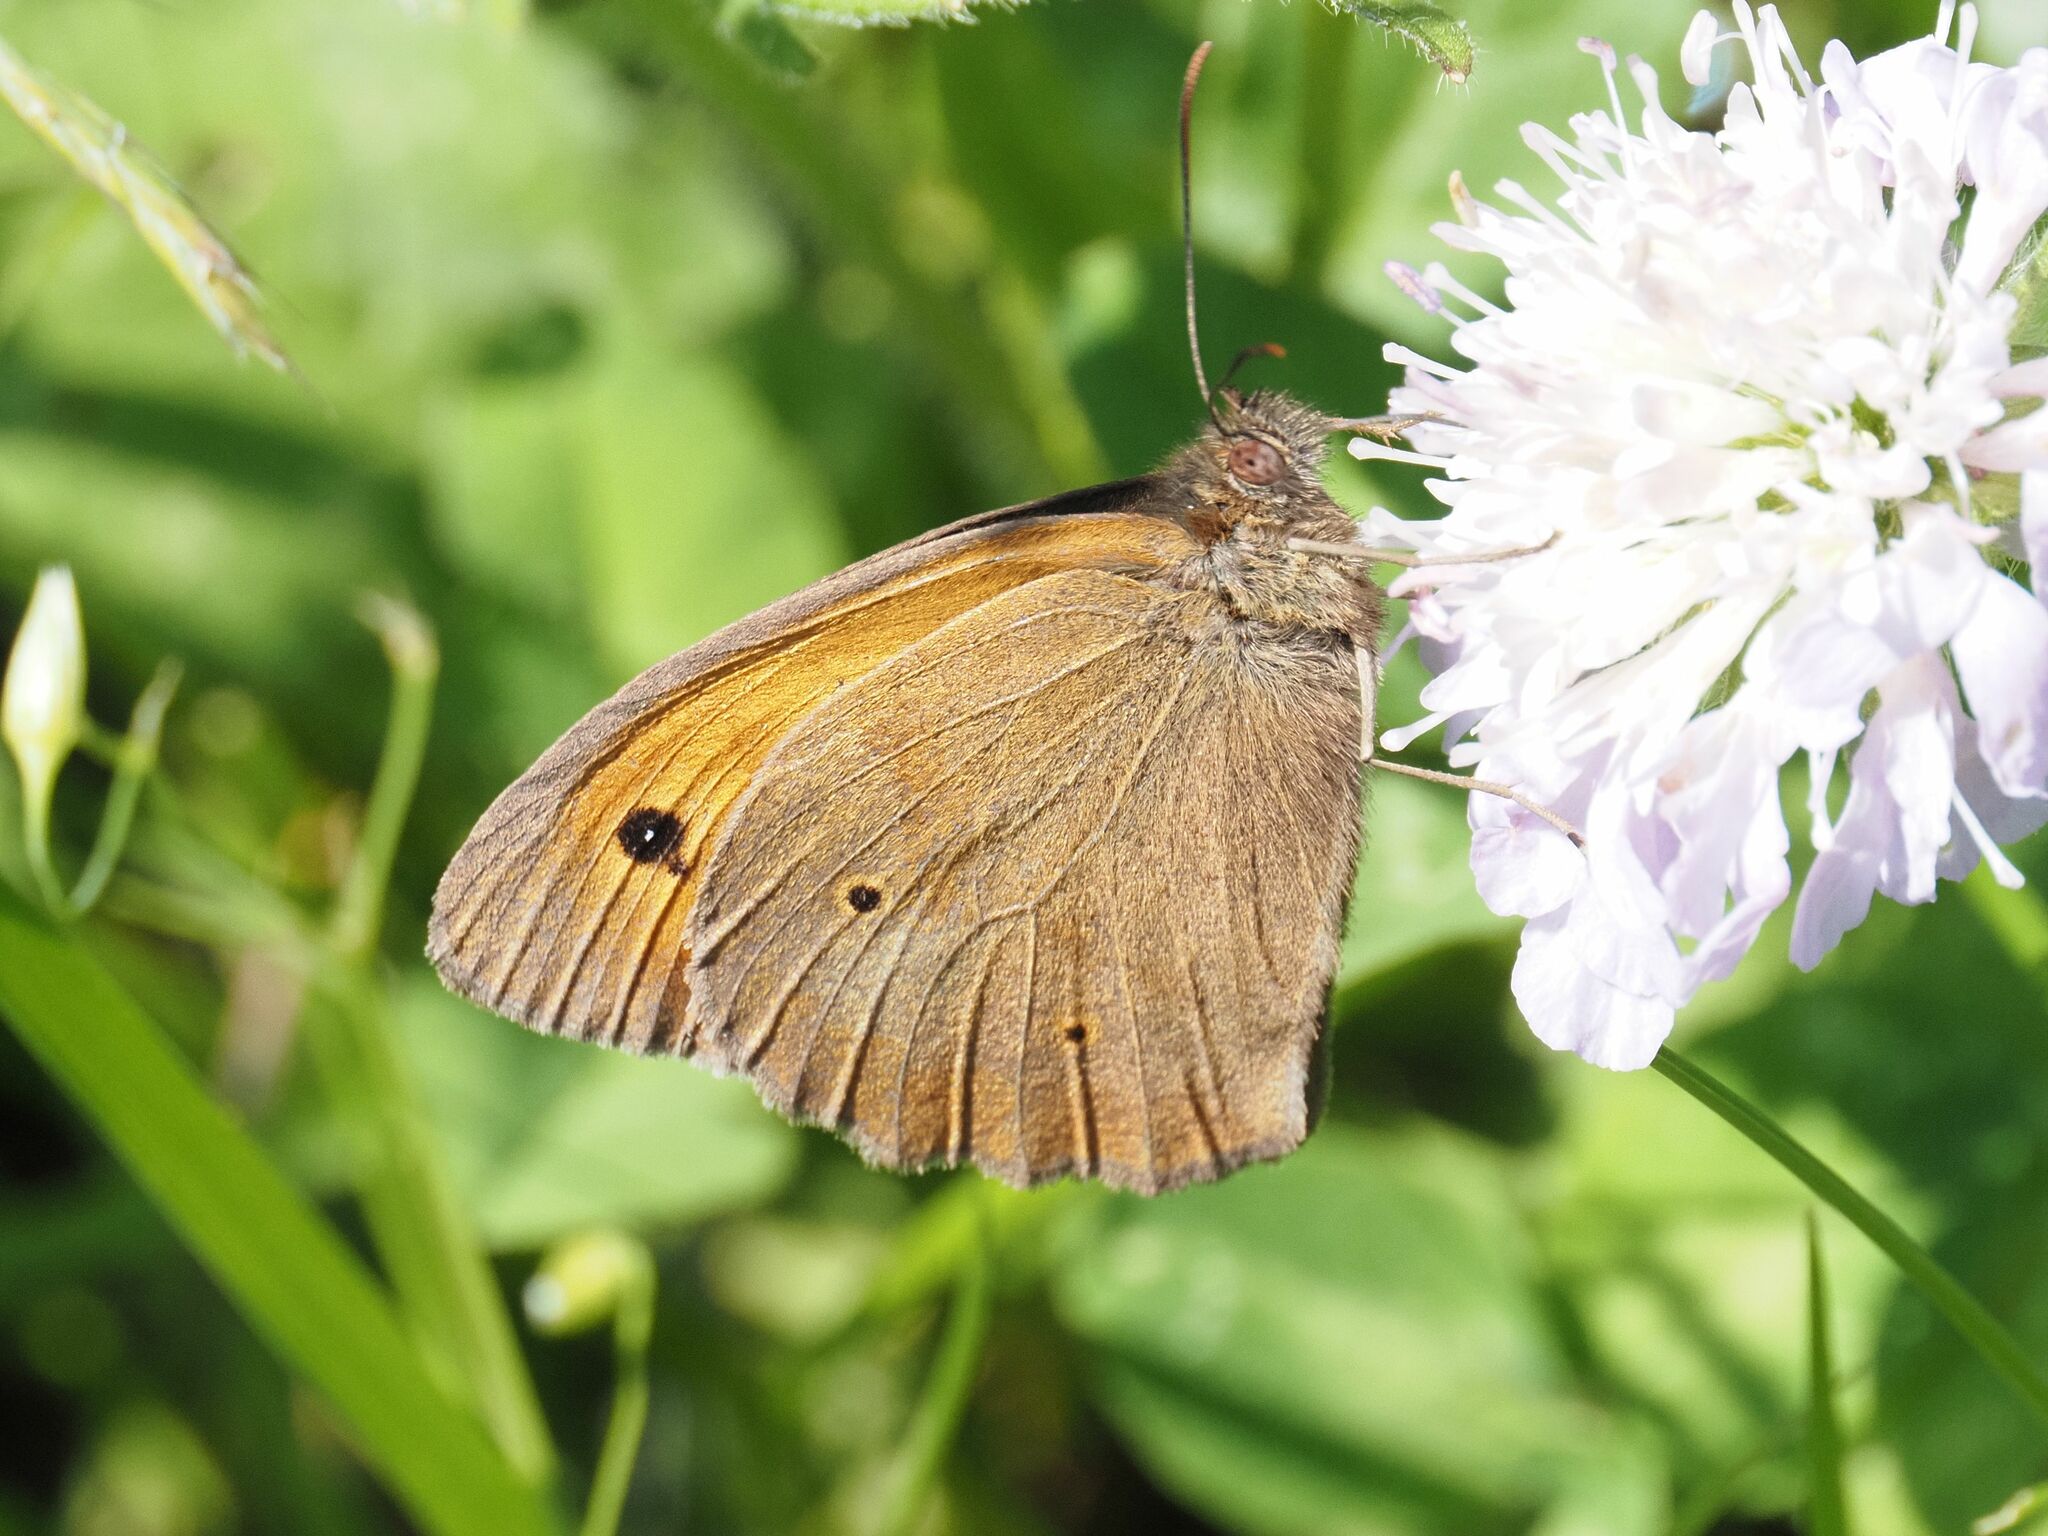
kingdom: Animalia
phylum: Arthropoda
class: Insecta
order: Lepidoptera
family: Nymphalidae
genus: Maniola
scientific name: Maniola jurtina
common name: Meadow brown
